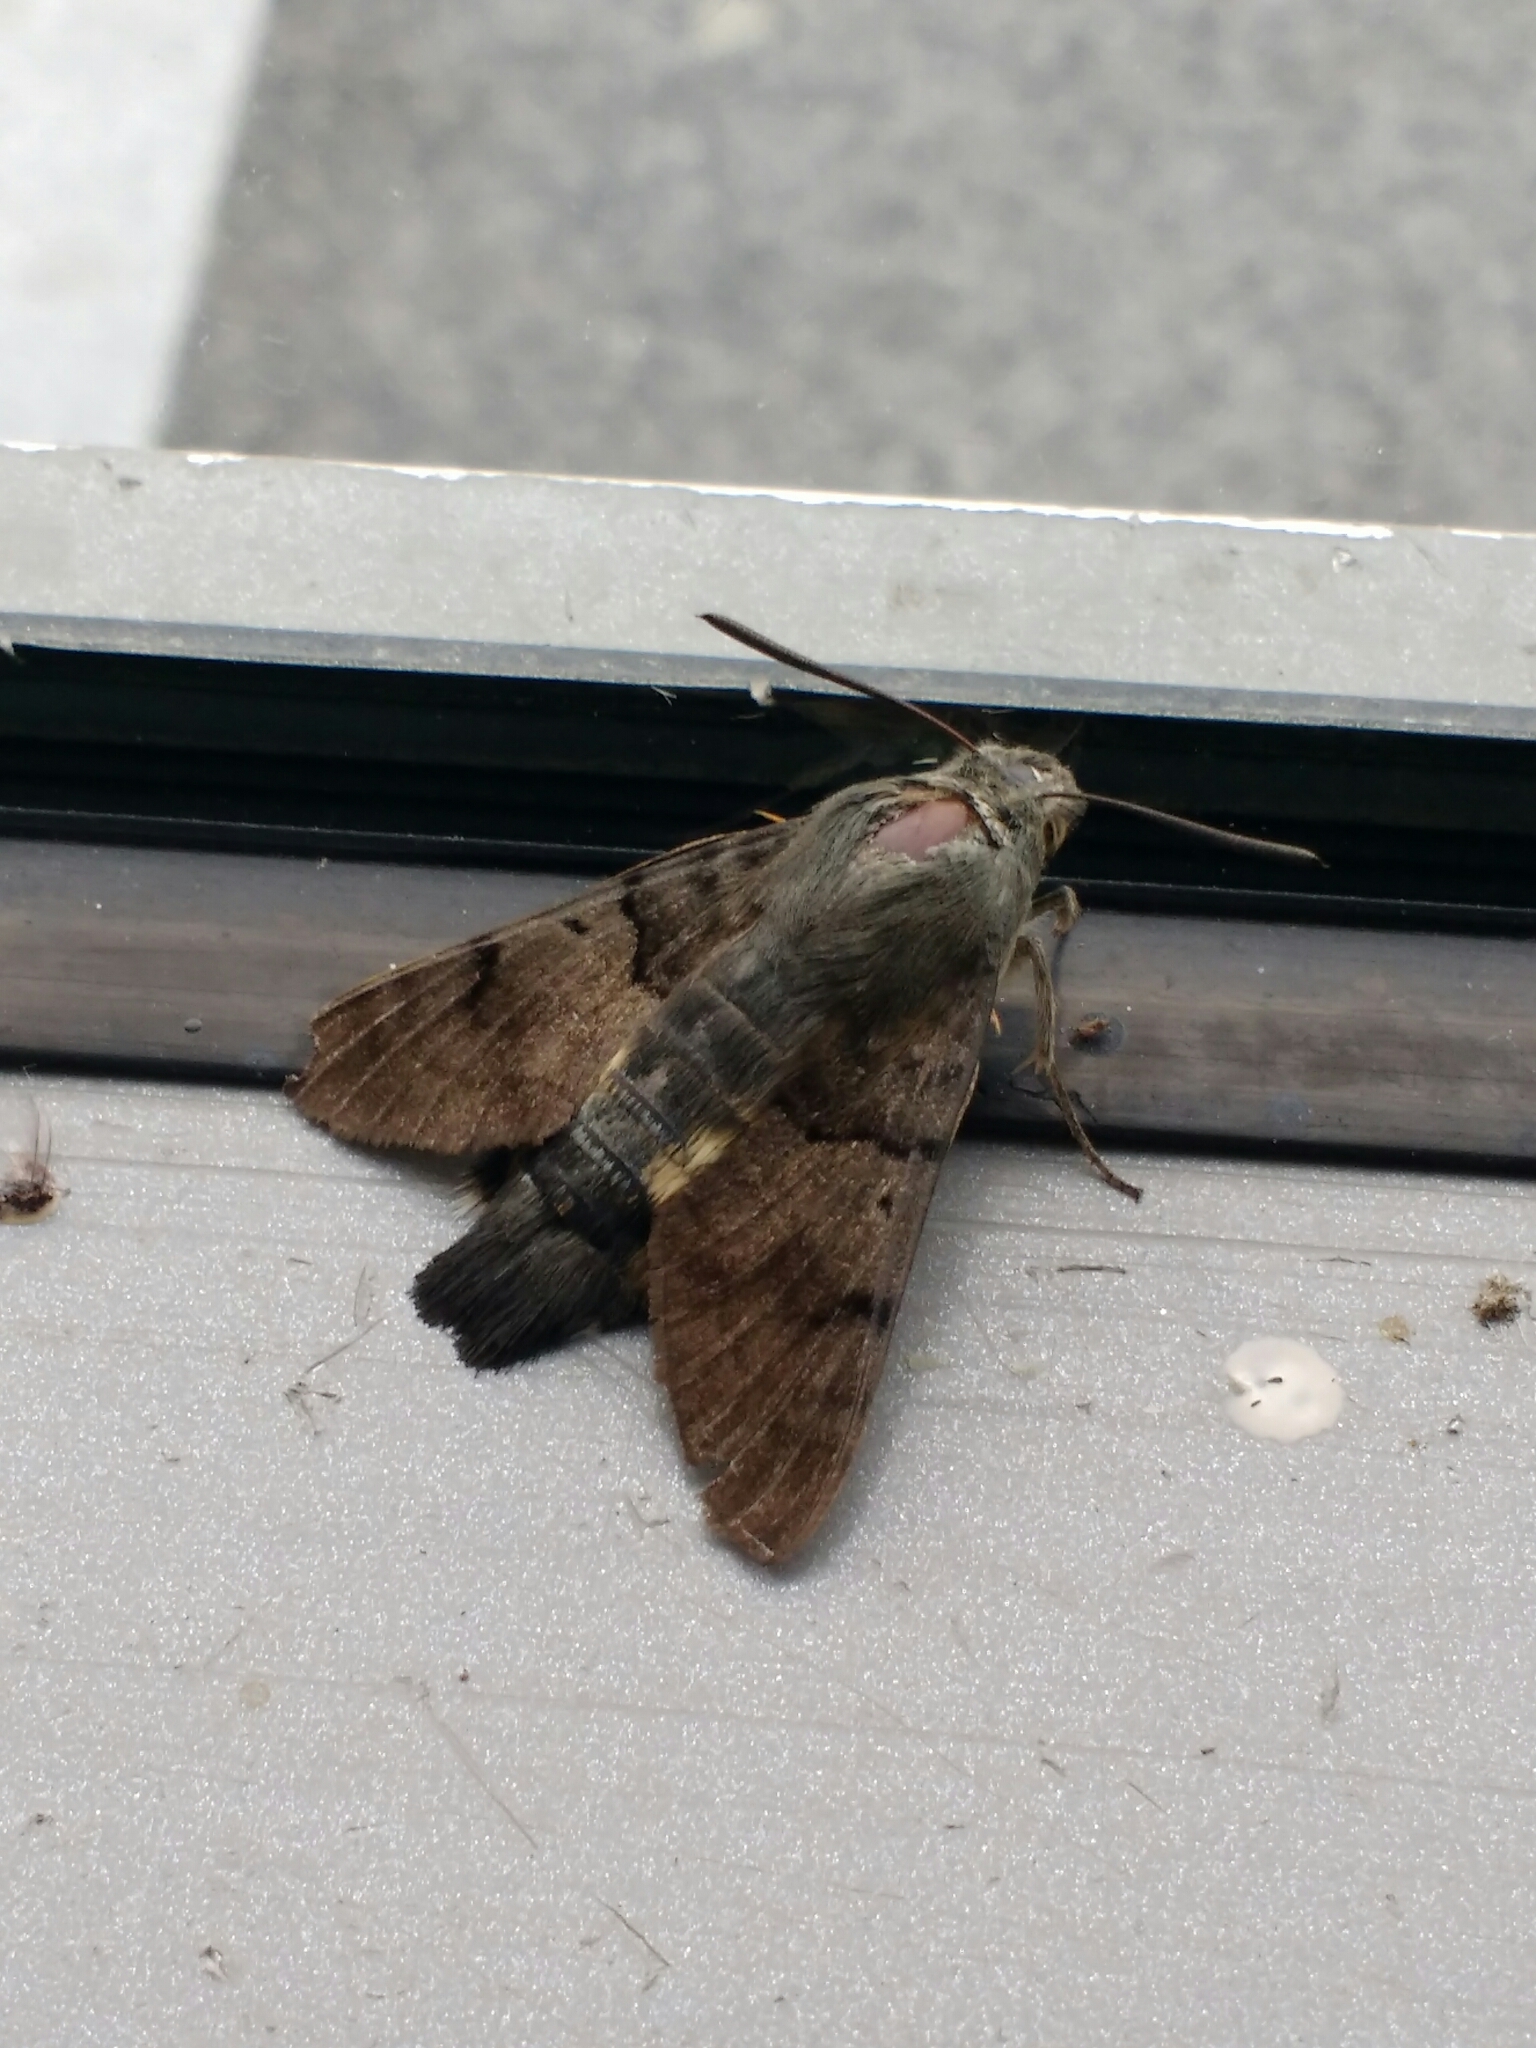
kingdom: Animalia
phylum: Arthropoda
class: Insecta
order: Lepidoptera
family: Sphingidae
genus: Macroglossum
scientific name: Macroglossum stellatarum
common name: Humming-bird hawk-moth
